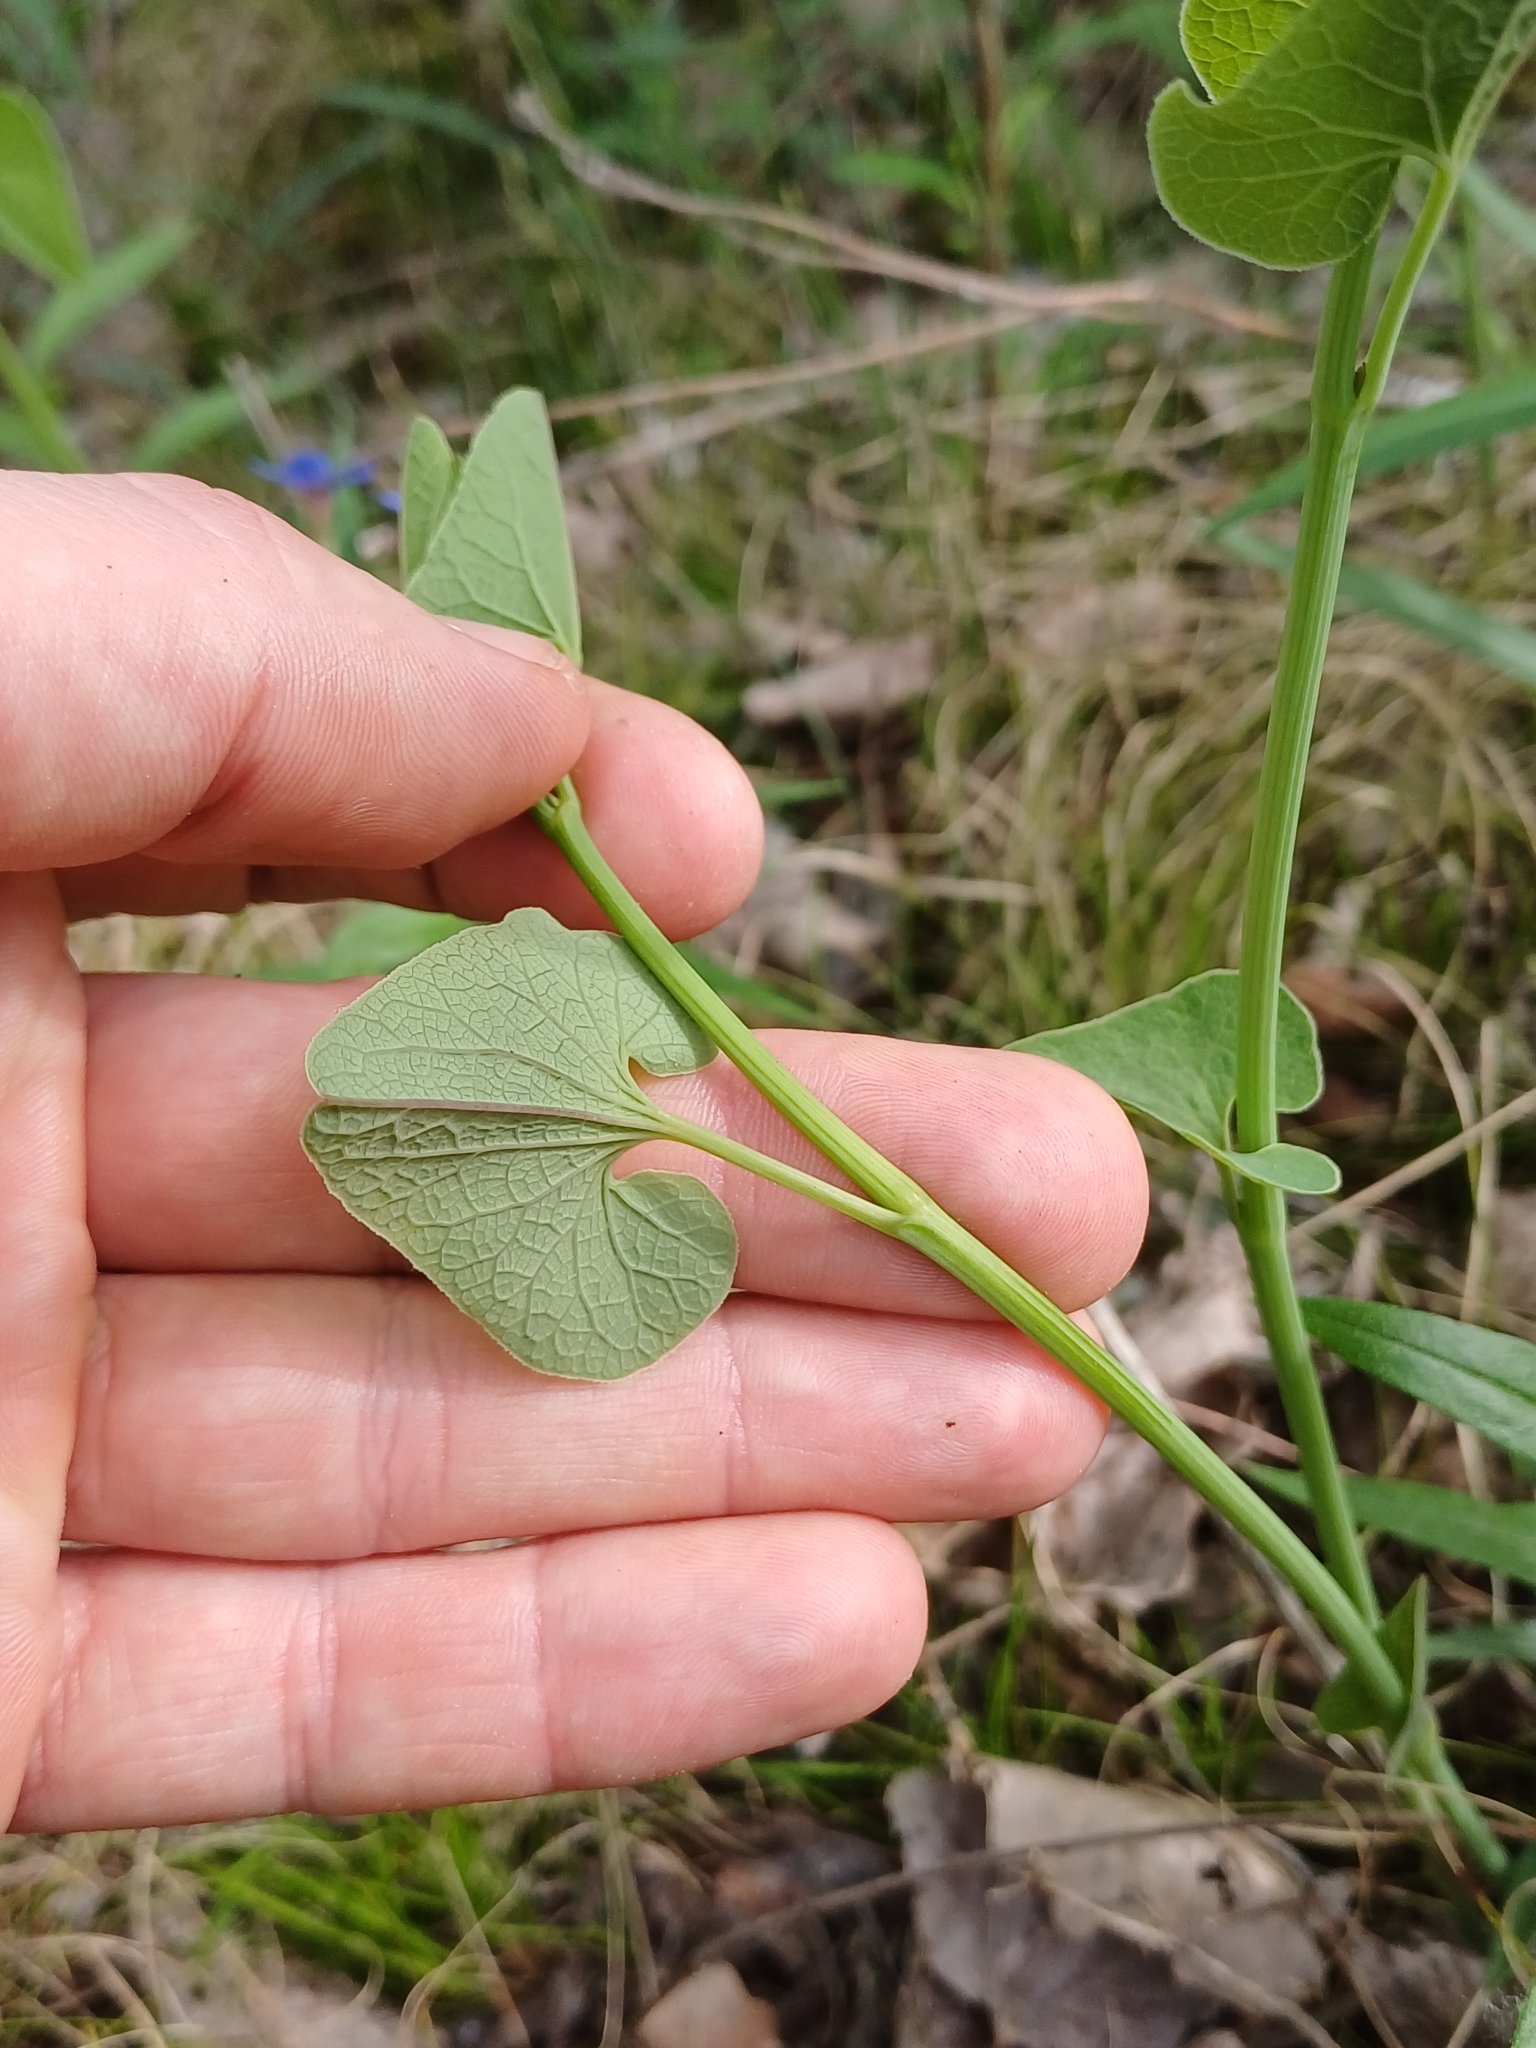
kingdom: Plantae
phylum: Tracheophyta
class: Magnoliopsida
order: Piperales
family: Aristolochiaceae
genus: Aristolochia
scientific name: Aristolochia clematitis
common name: Birthwort
